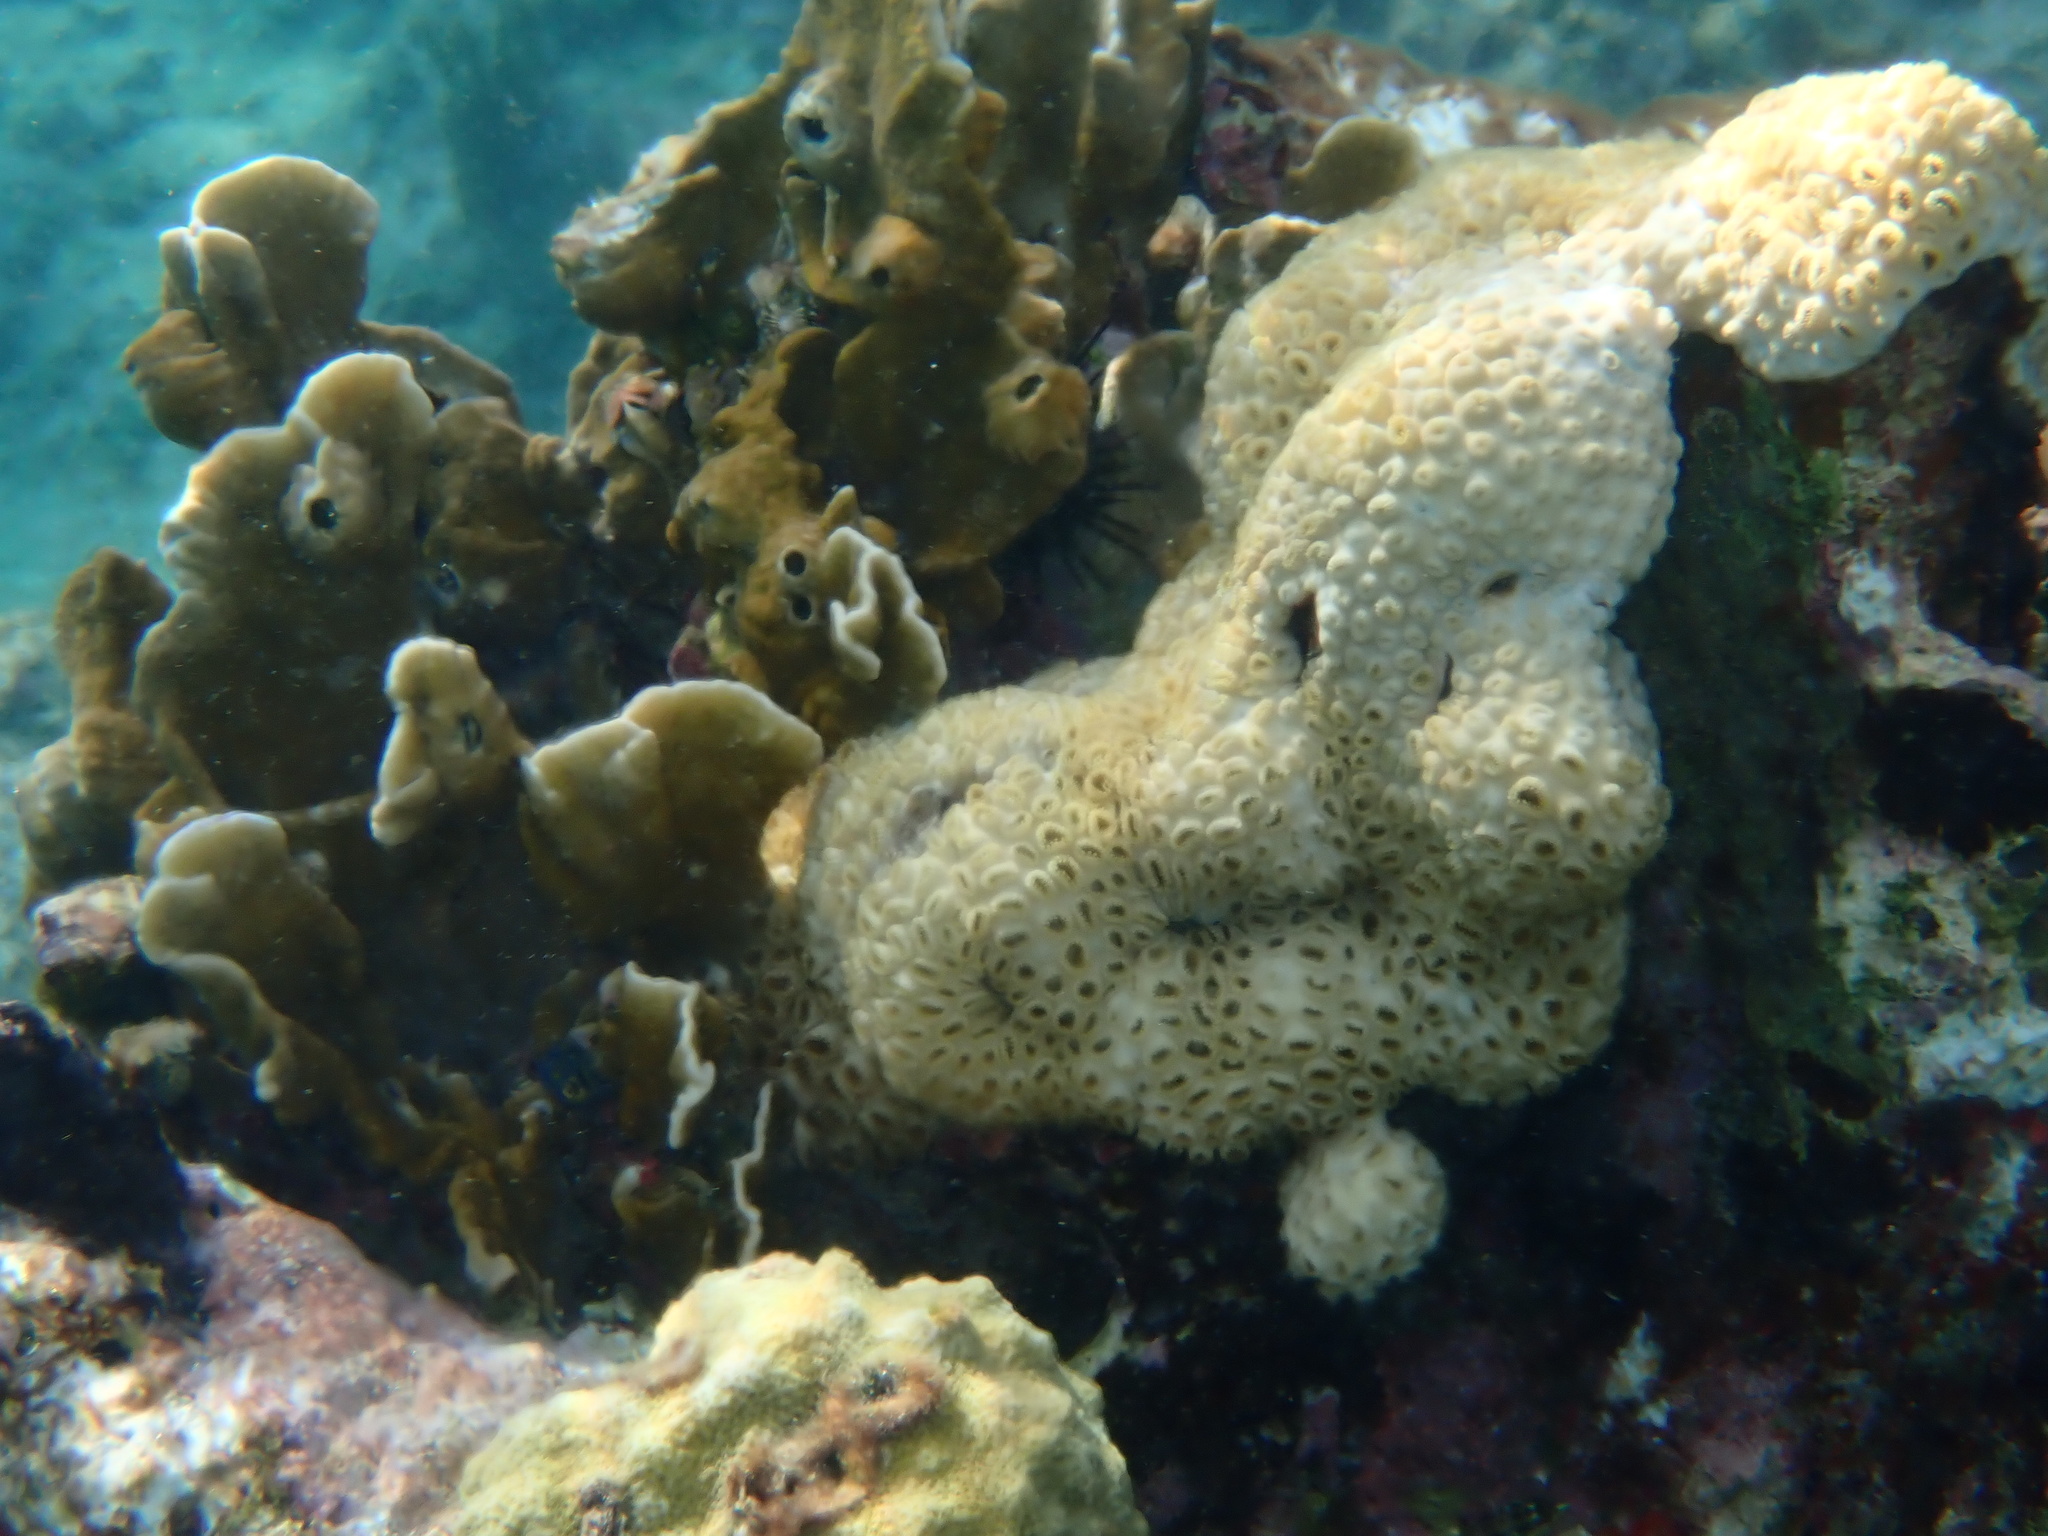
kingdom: Animalia
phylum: Cnidaria
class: Anthozoa
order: Zoantharia
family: Sphenopidae
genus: Palythoa
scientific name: Palythoa caribaeorum
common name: Encrusting colonial anemone
